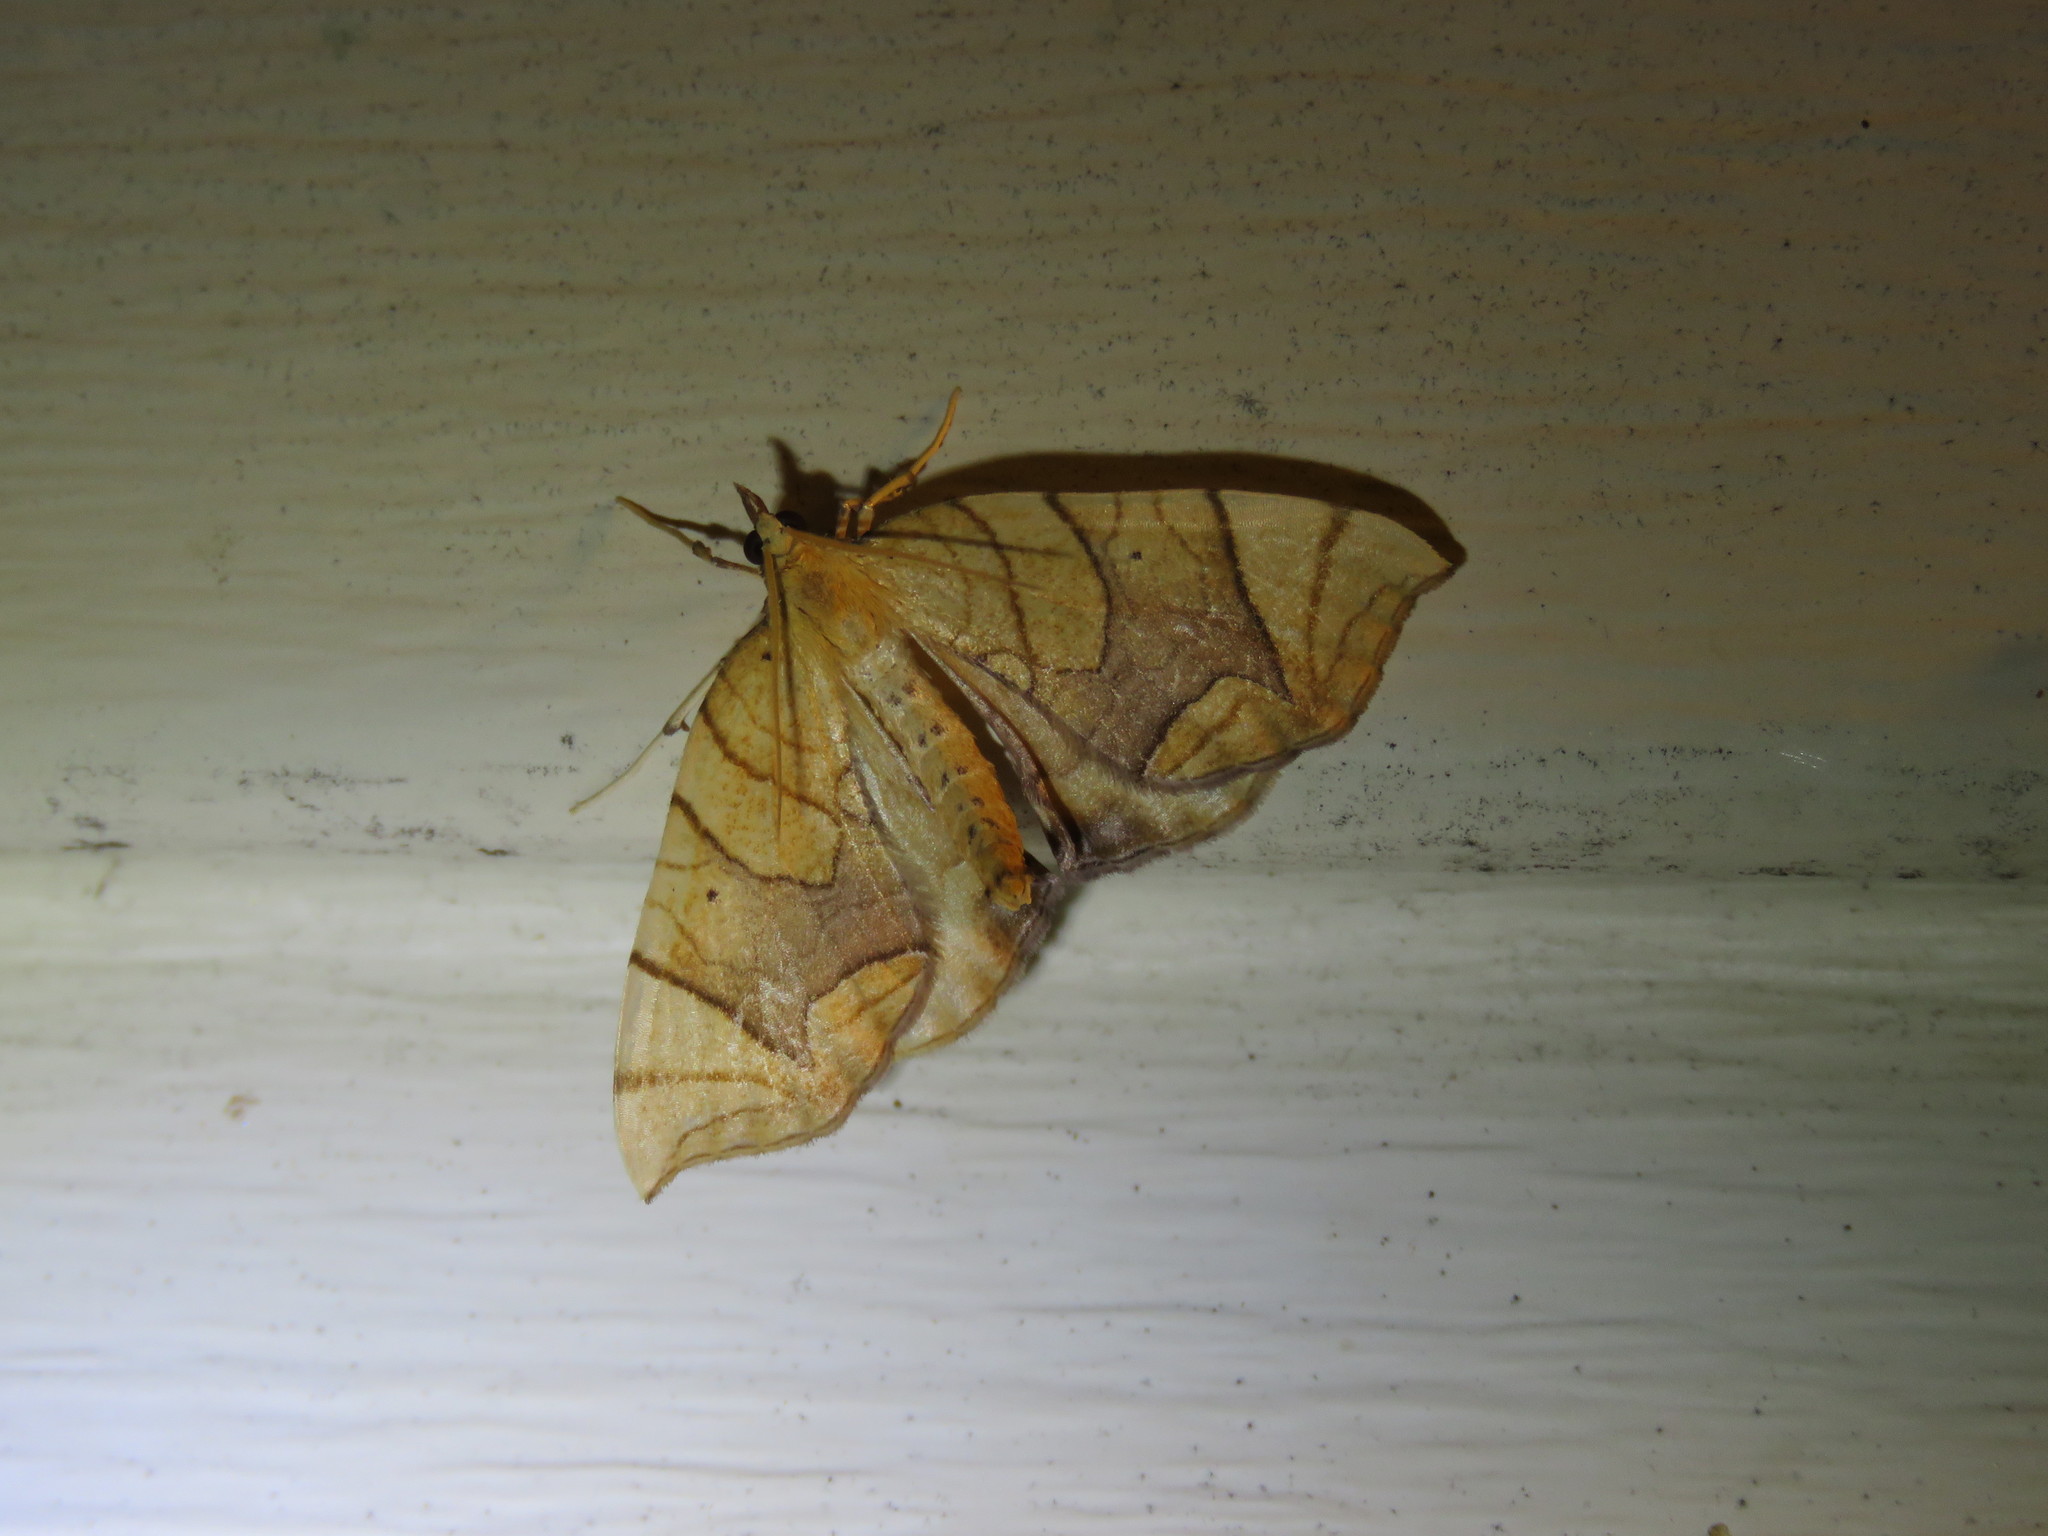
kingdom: Animalia
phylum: Arthropoda
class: Insecta
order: Lepidoptera
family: Geometridae
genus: Eulithis
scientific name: Eulithis
